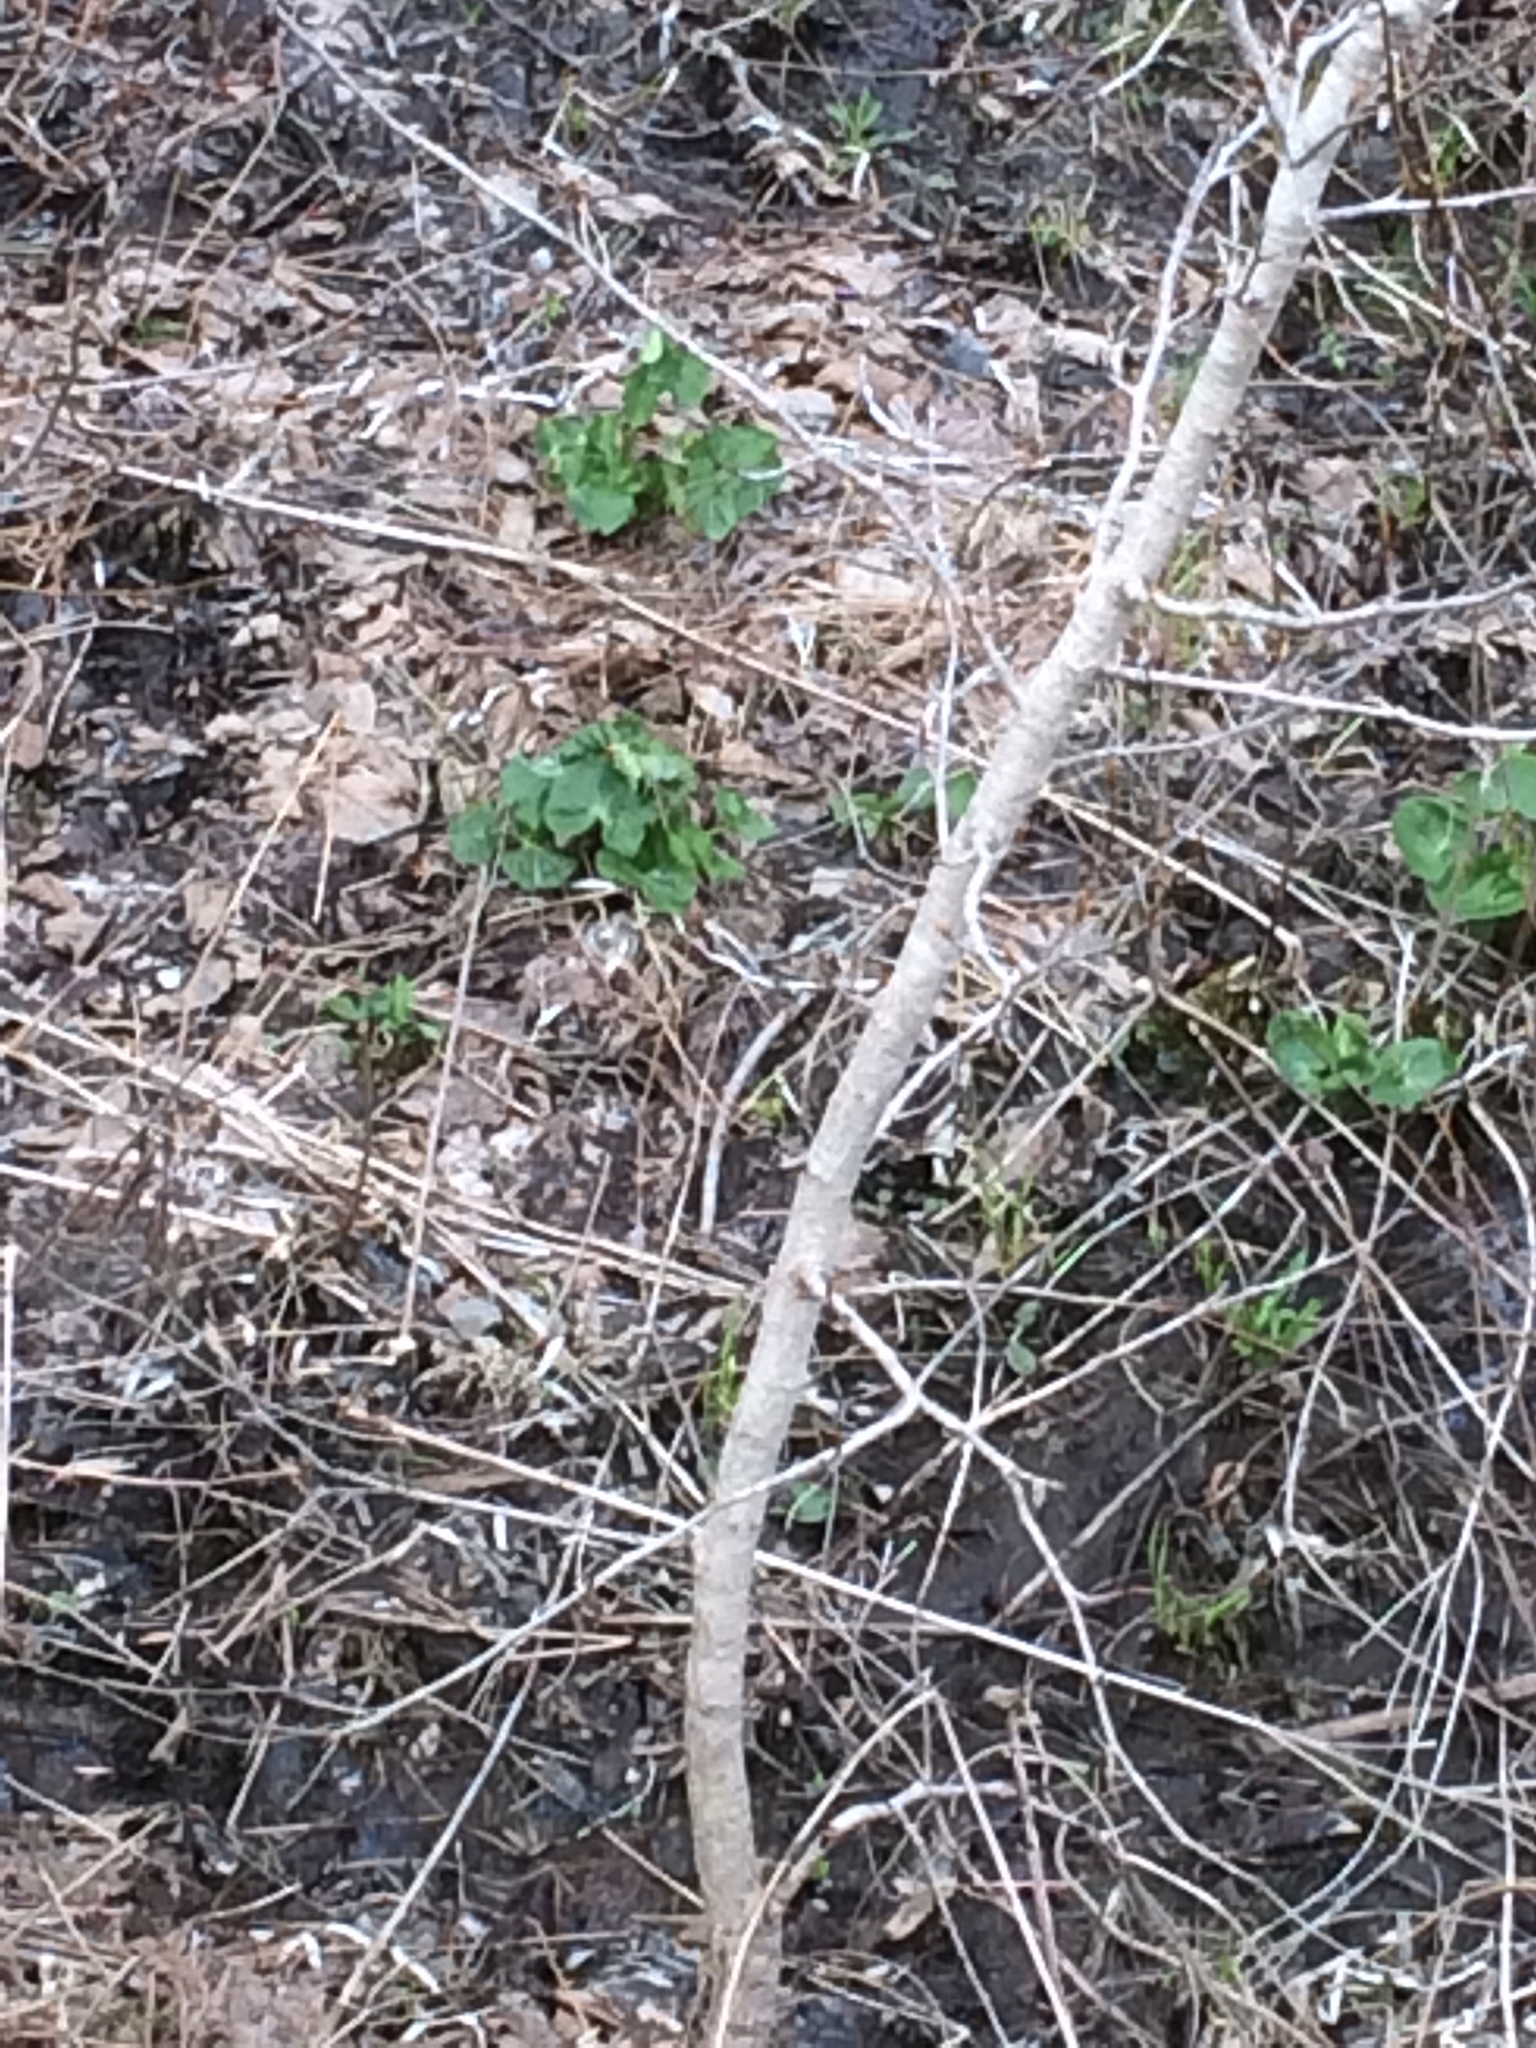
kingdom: Plantae
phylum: Tracheophyta
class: Magnoliopsida
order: Ranunculales
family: Ranunculaceae
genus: Caltha
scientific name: Caltha palustris
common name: Marsh marigold
